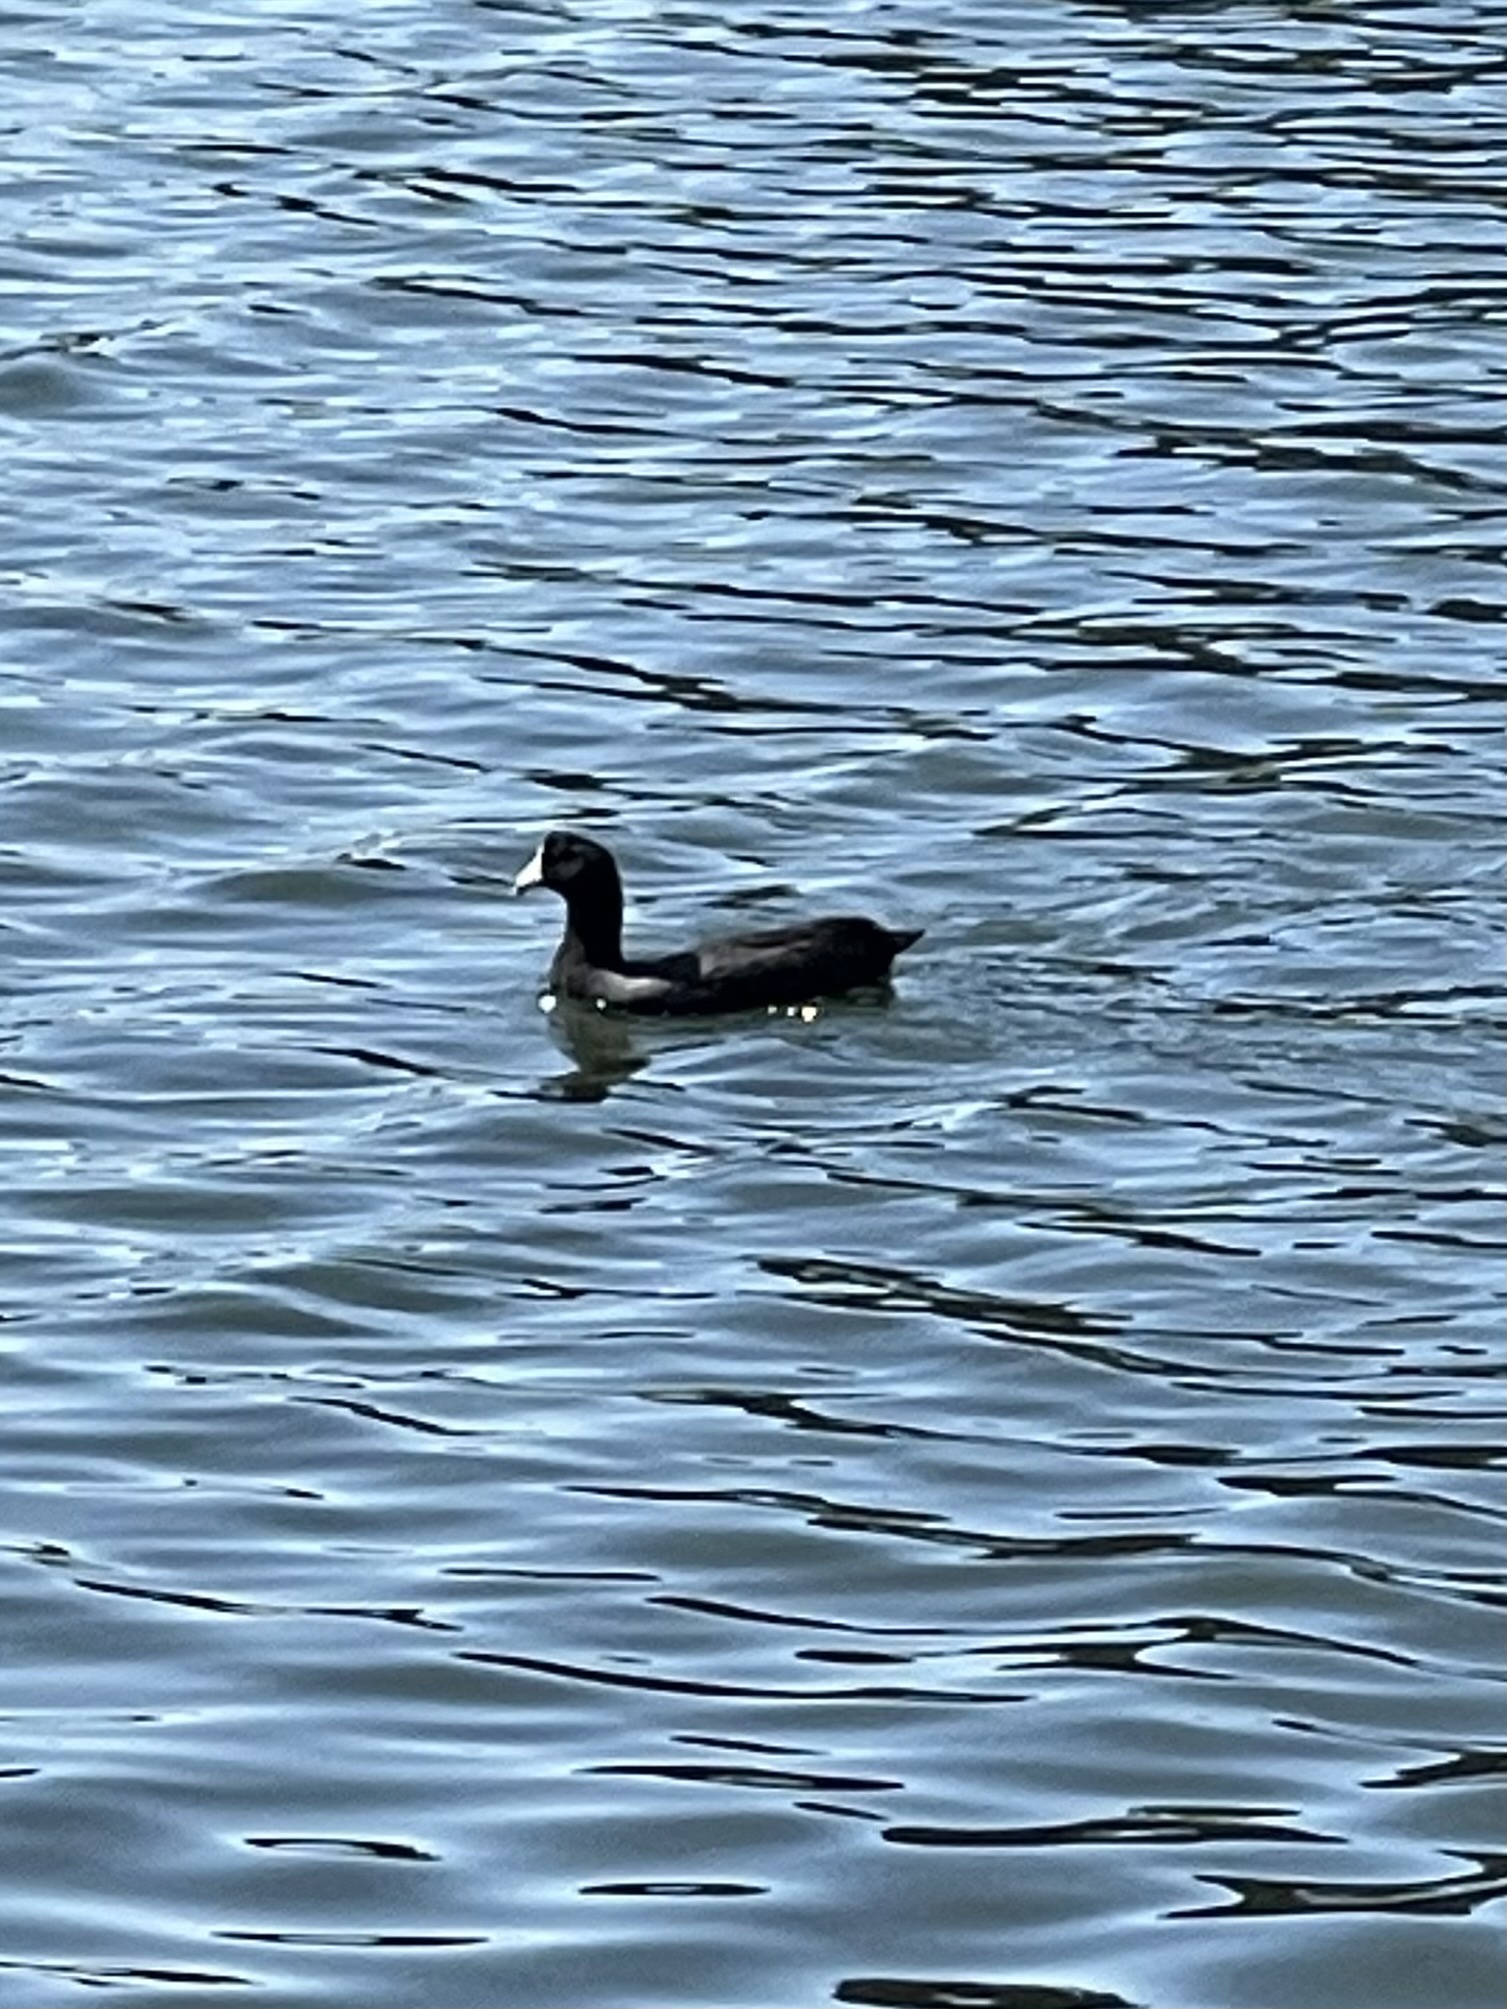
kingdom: Animalia
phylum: Chordata
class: Aves
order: Gruiformes
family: Rallidae
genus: Fulica
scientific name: Fulica americana
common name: American coot
